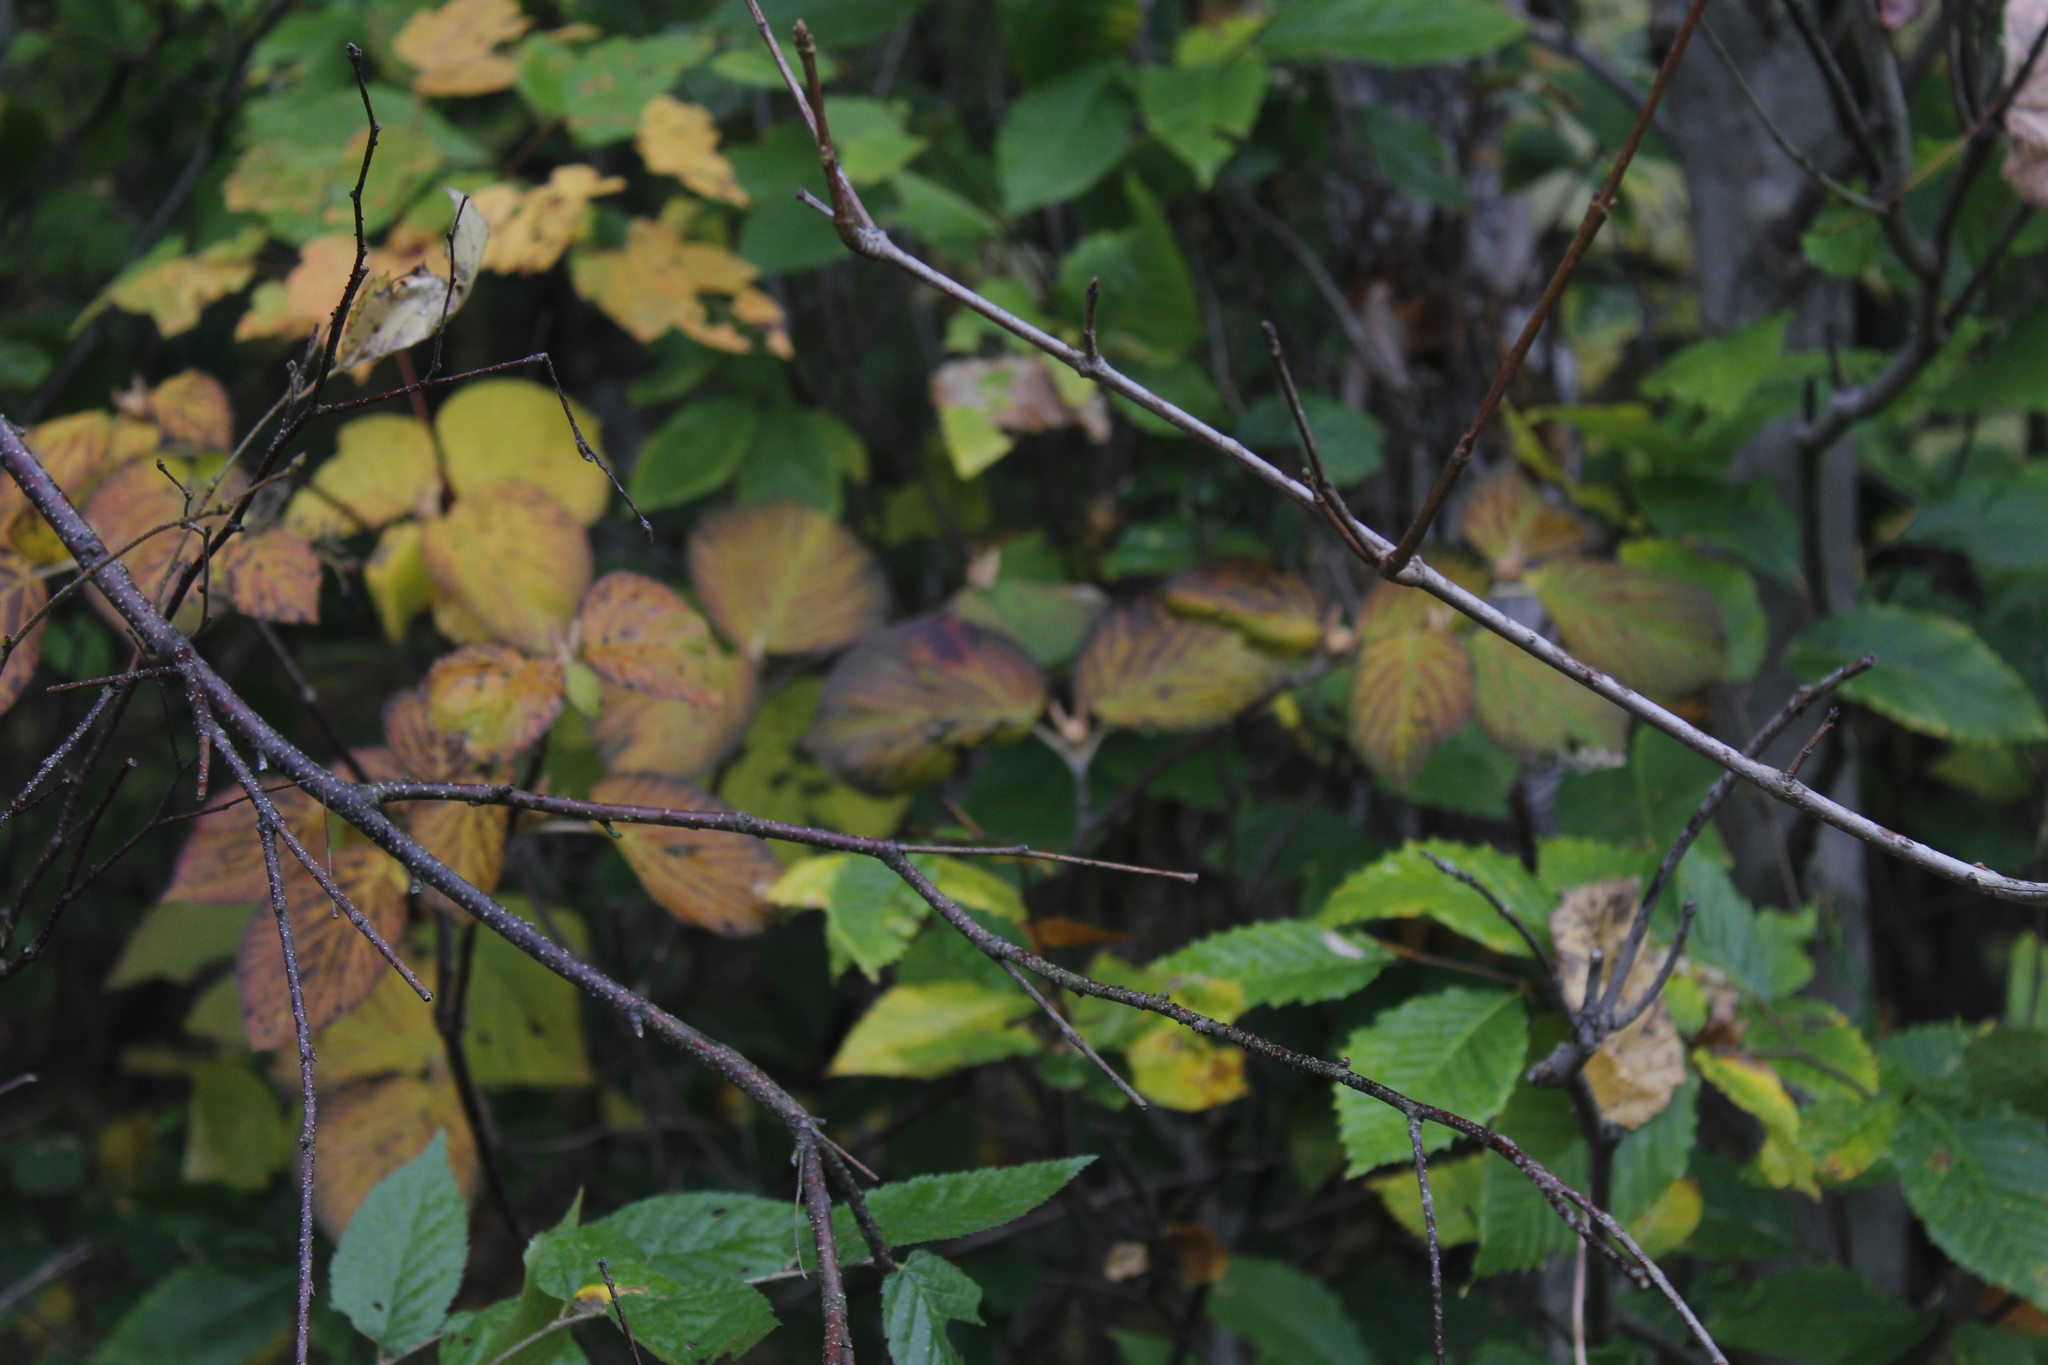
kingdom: Plantae
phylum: Tracheophyta
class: Magnoliopsida
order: Dipsacales
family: Viburnaceae
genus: Viburnum
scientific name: Viburnum lantanoides
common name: Hobblebush
